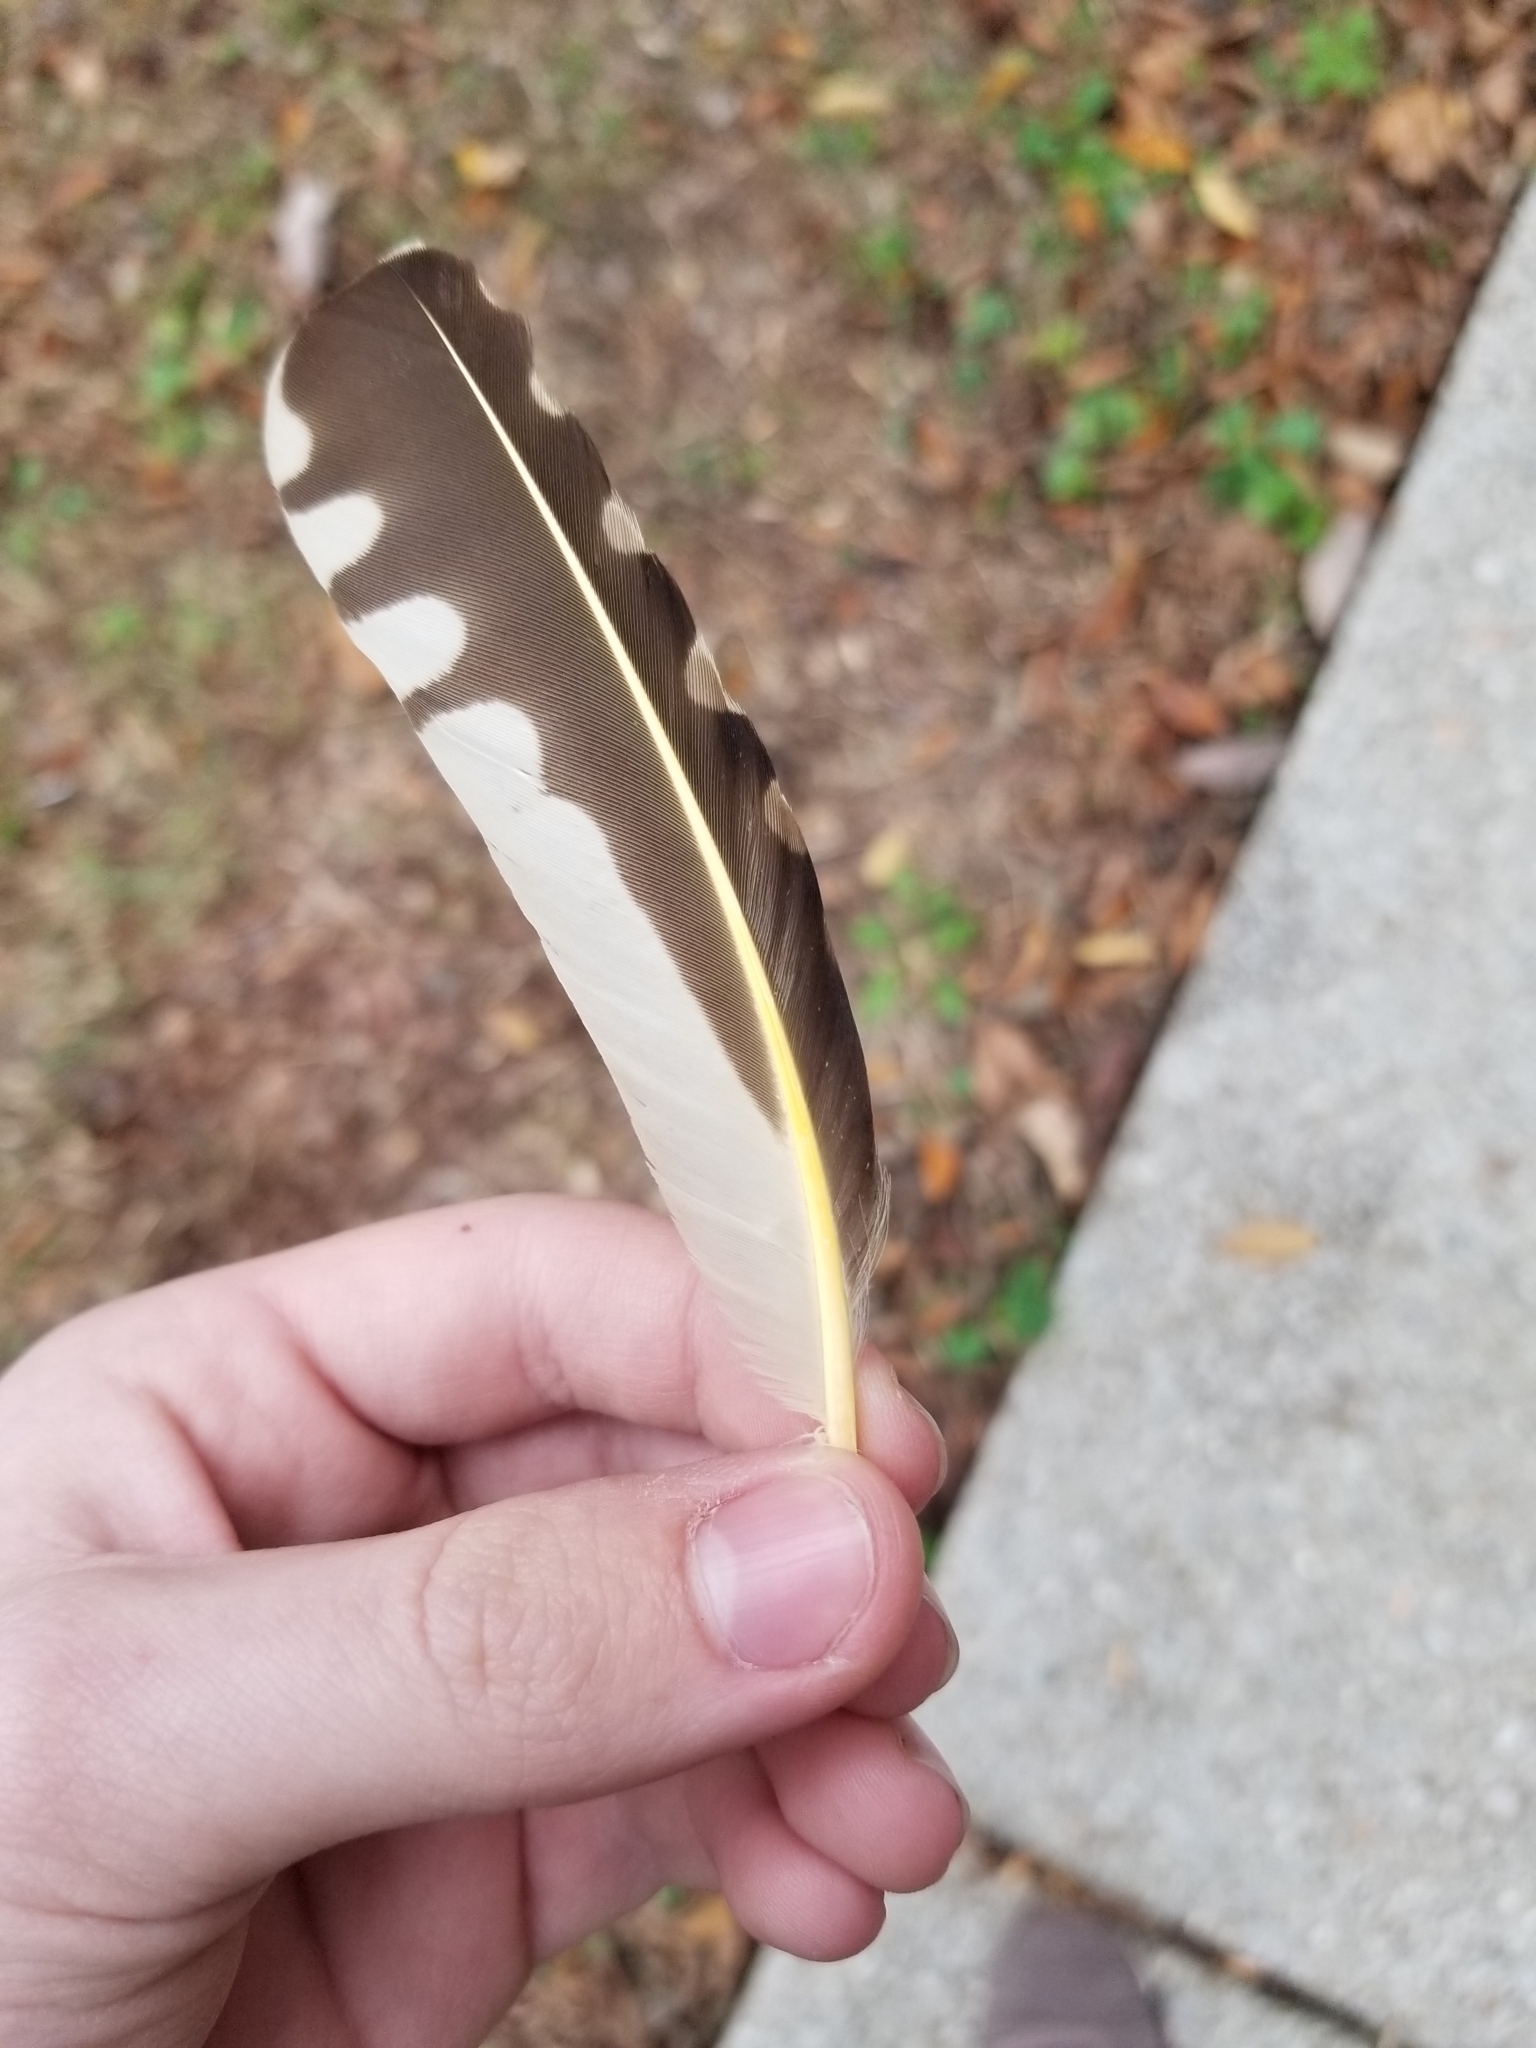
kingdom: Animalia
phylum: Chordata
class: Aves
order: Piciformes
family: Picidae
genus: Colaptes
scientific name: Colaptes auratus
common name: Northern flicker
